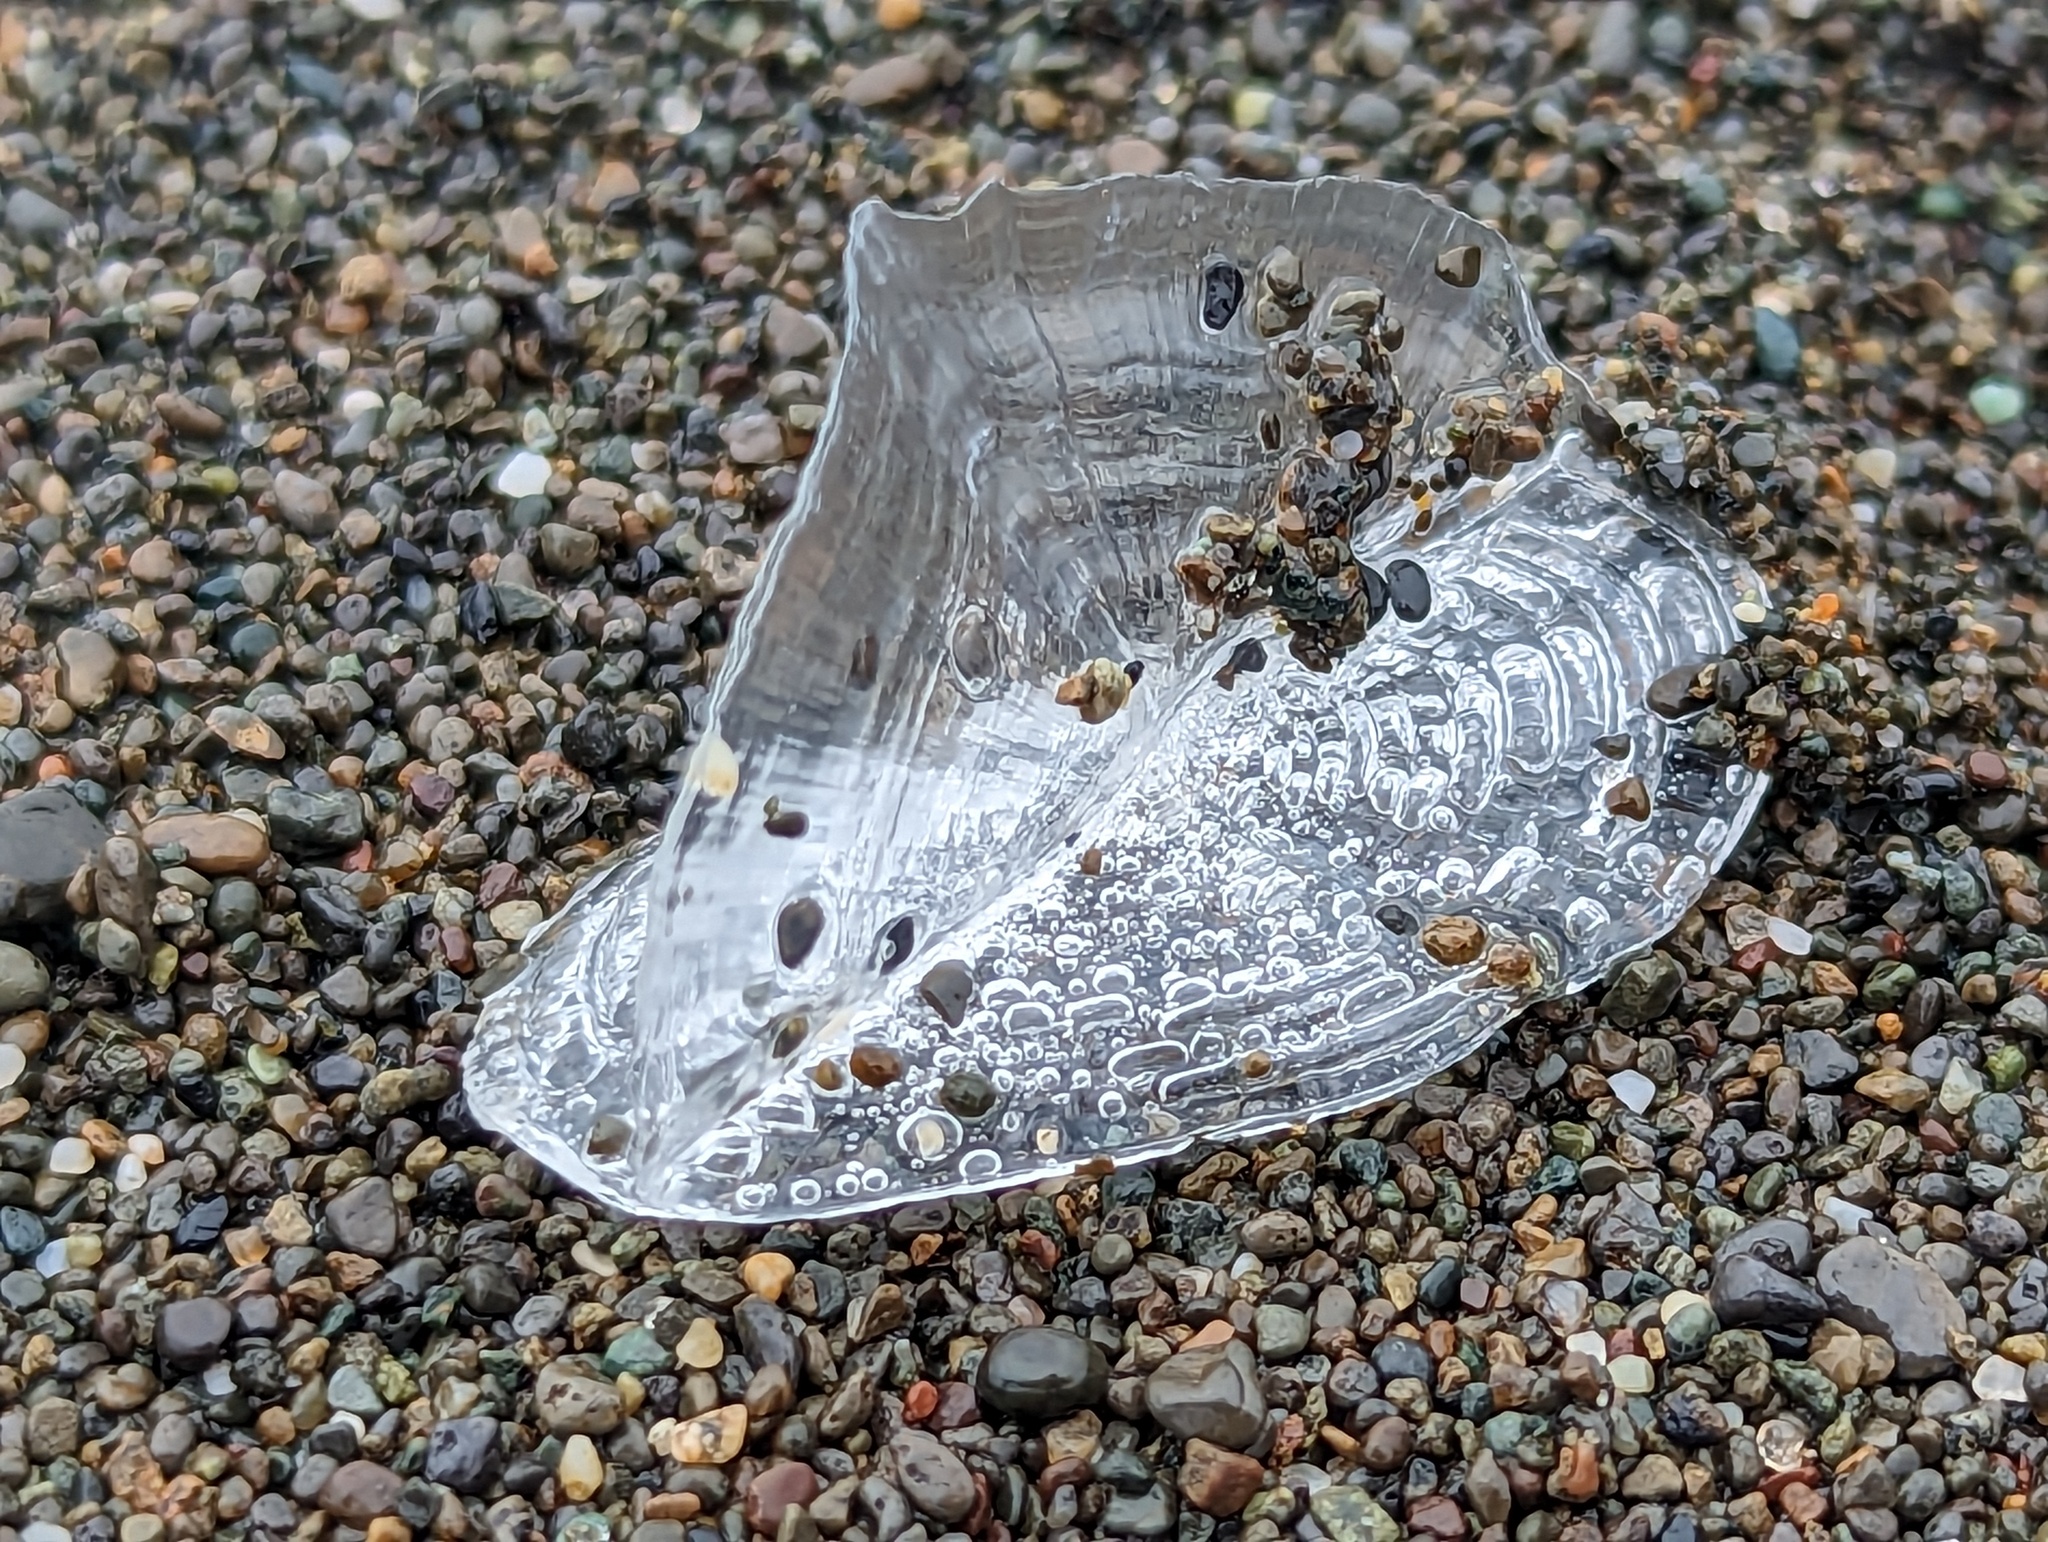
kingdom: Animalia
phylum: Cnidaria
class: Hydrozoa
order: Anthoathecata
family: Porpitidae
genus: Velella
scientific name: Velella velella
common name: By-the-wind-sailor
